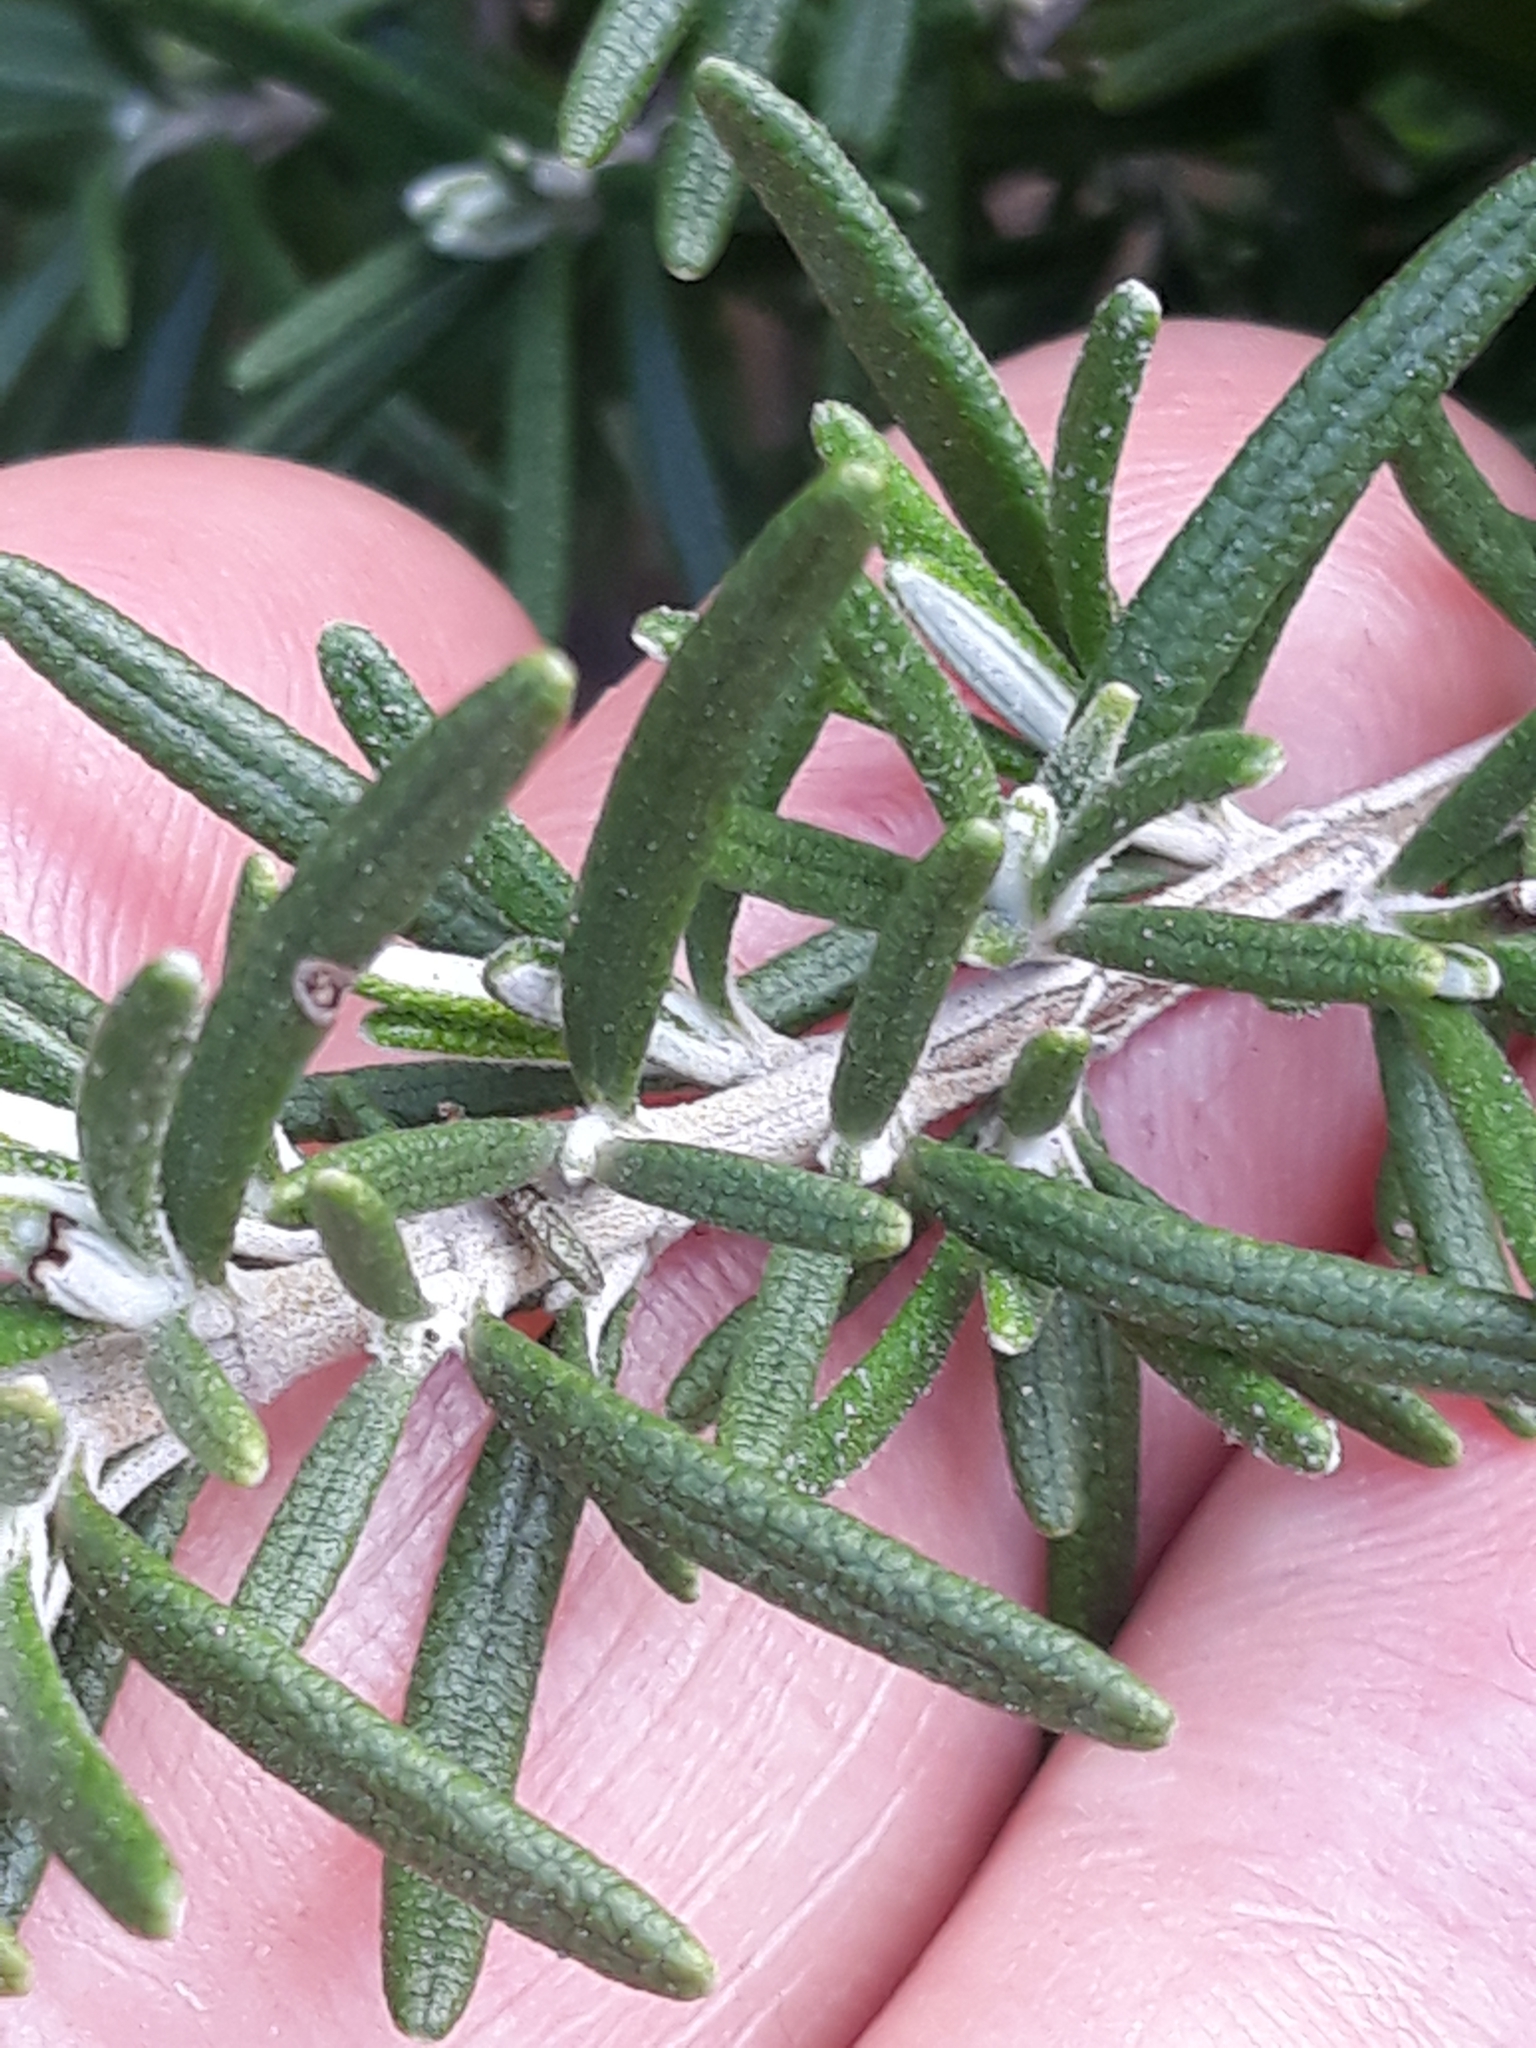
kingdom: Plantae
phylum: Tracheophyta
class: Magnoliopsida
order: Lamiales
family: Lamiaceae
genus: Salvia
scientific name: Salvia rosmarinus
